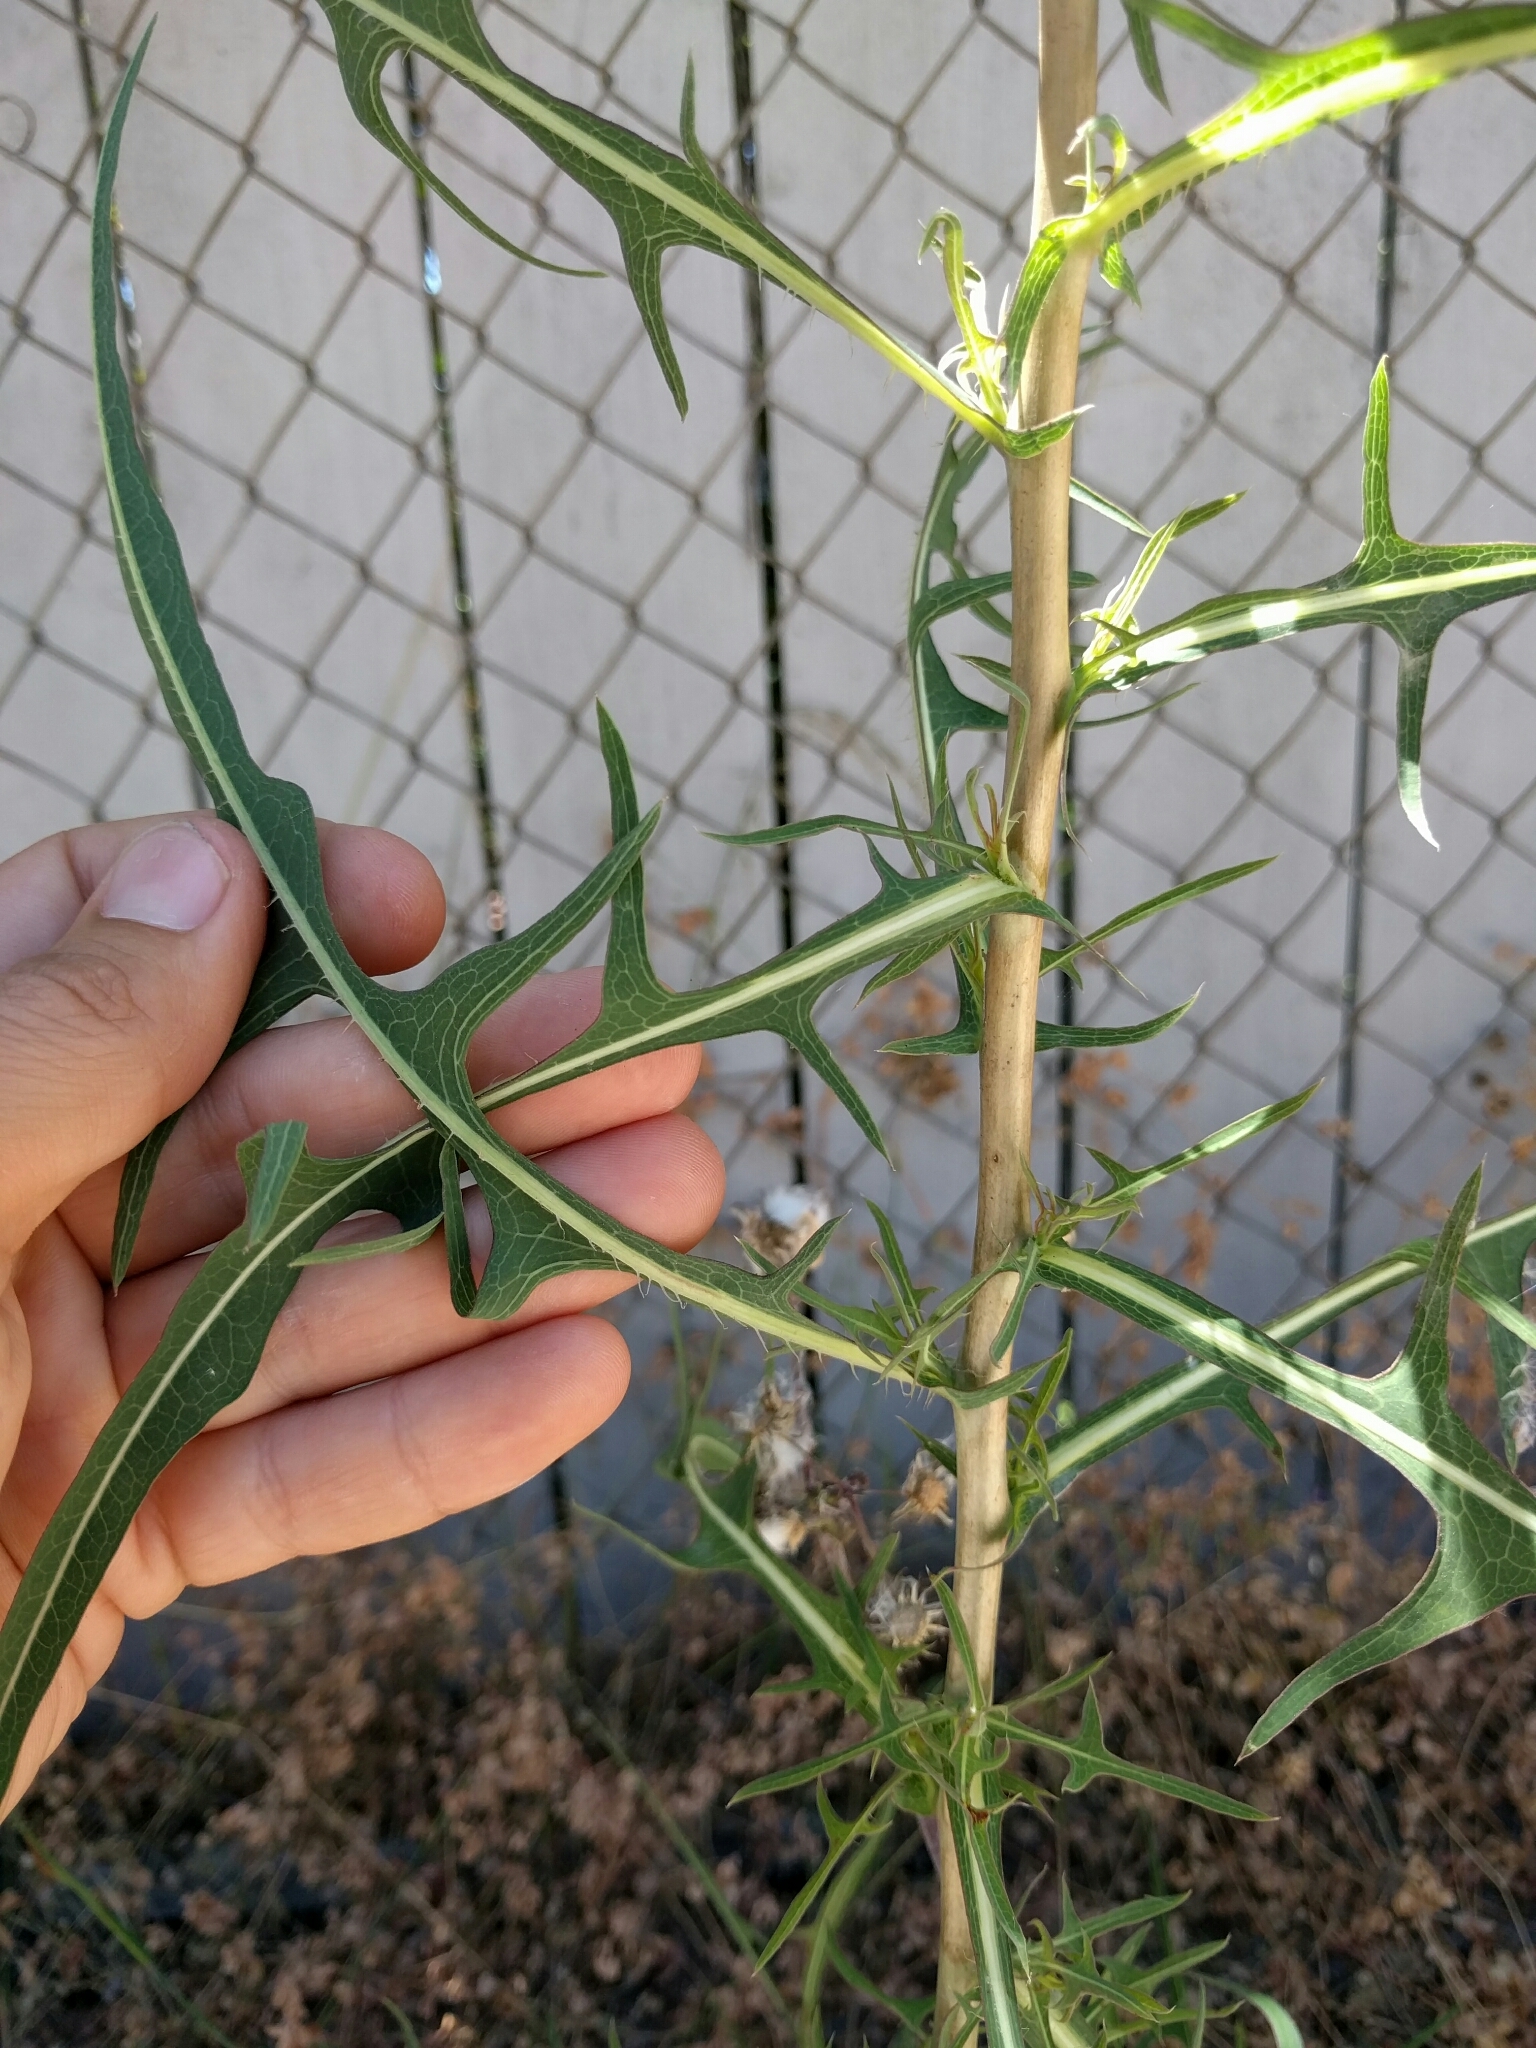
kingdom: Plantae
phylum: Tracheophyta
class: Magnoliopsida
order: Asterales
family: Asteraceae
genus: Lactuca
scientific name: Lactuca serriola
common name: Prickly lettuce
